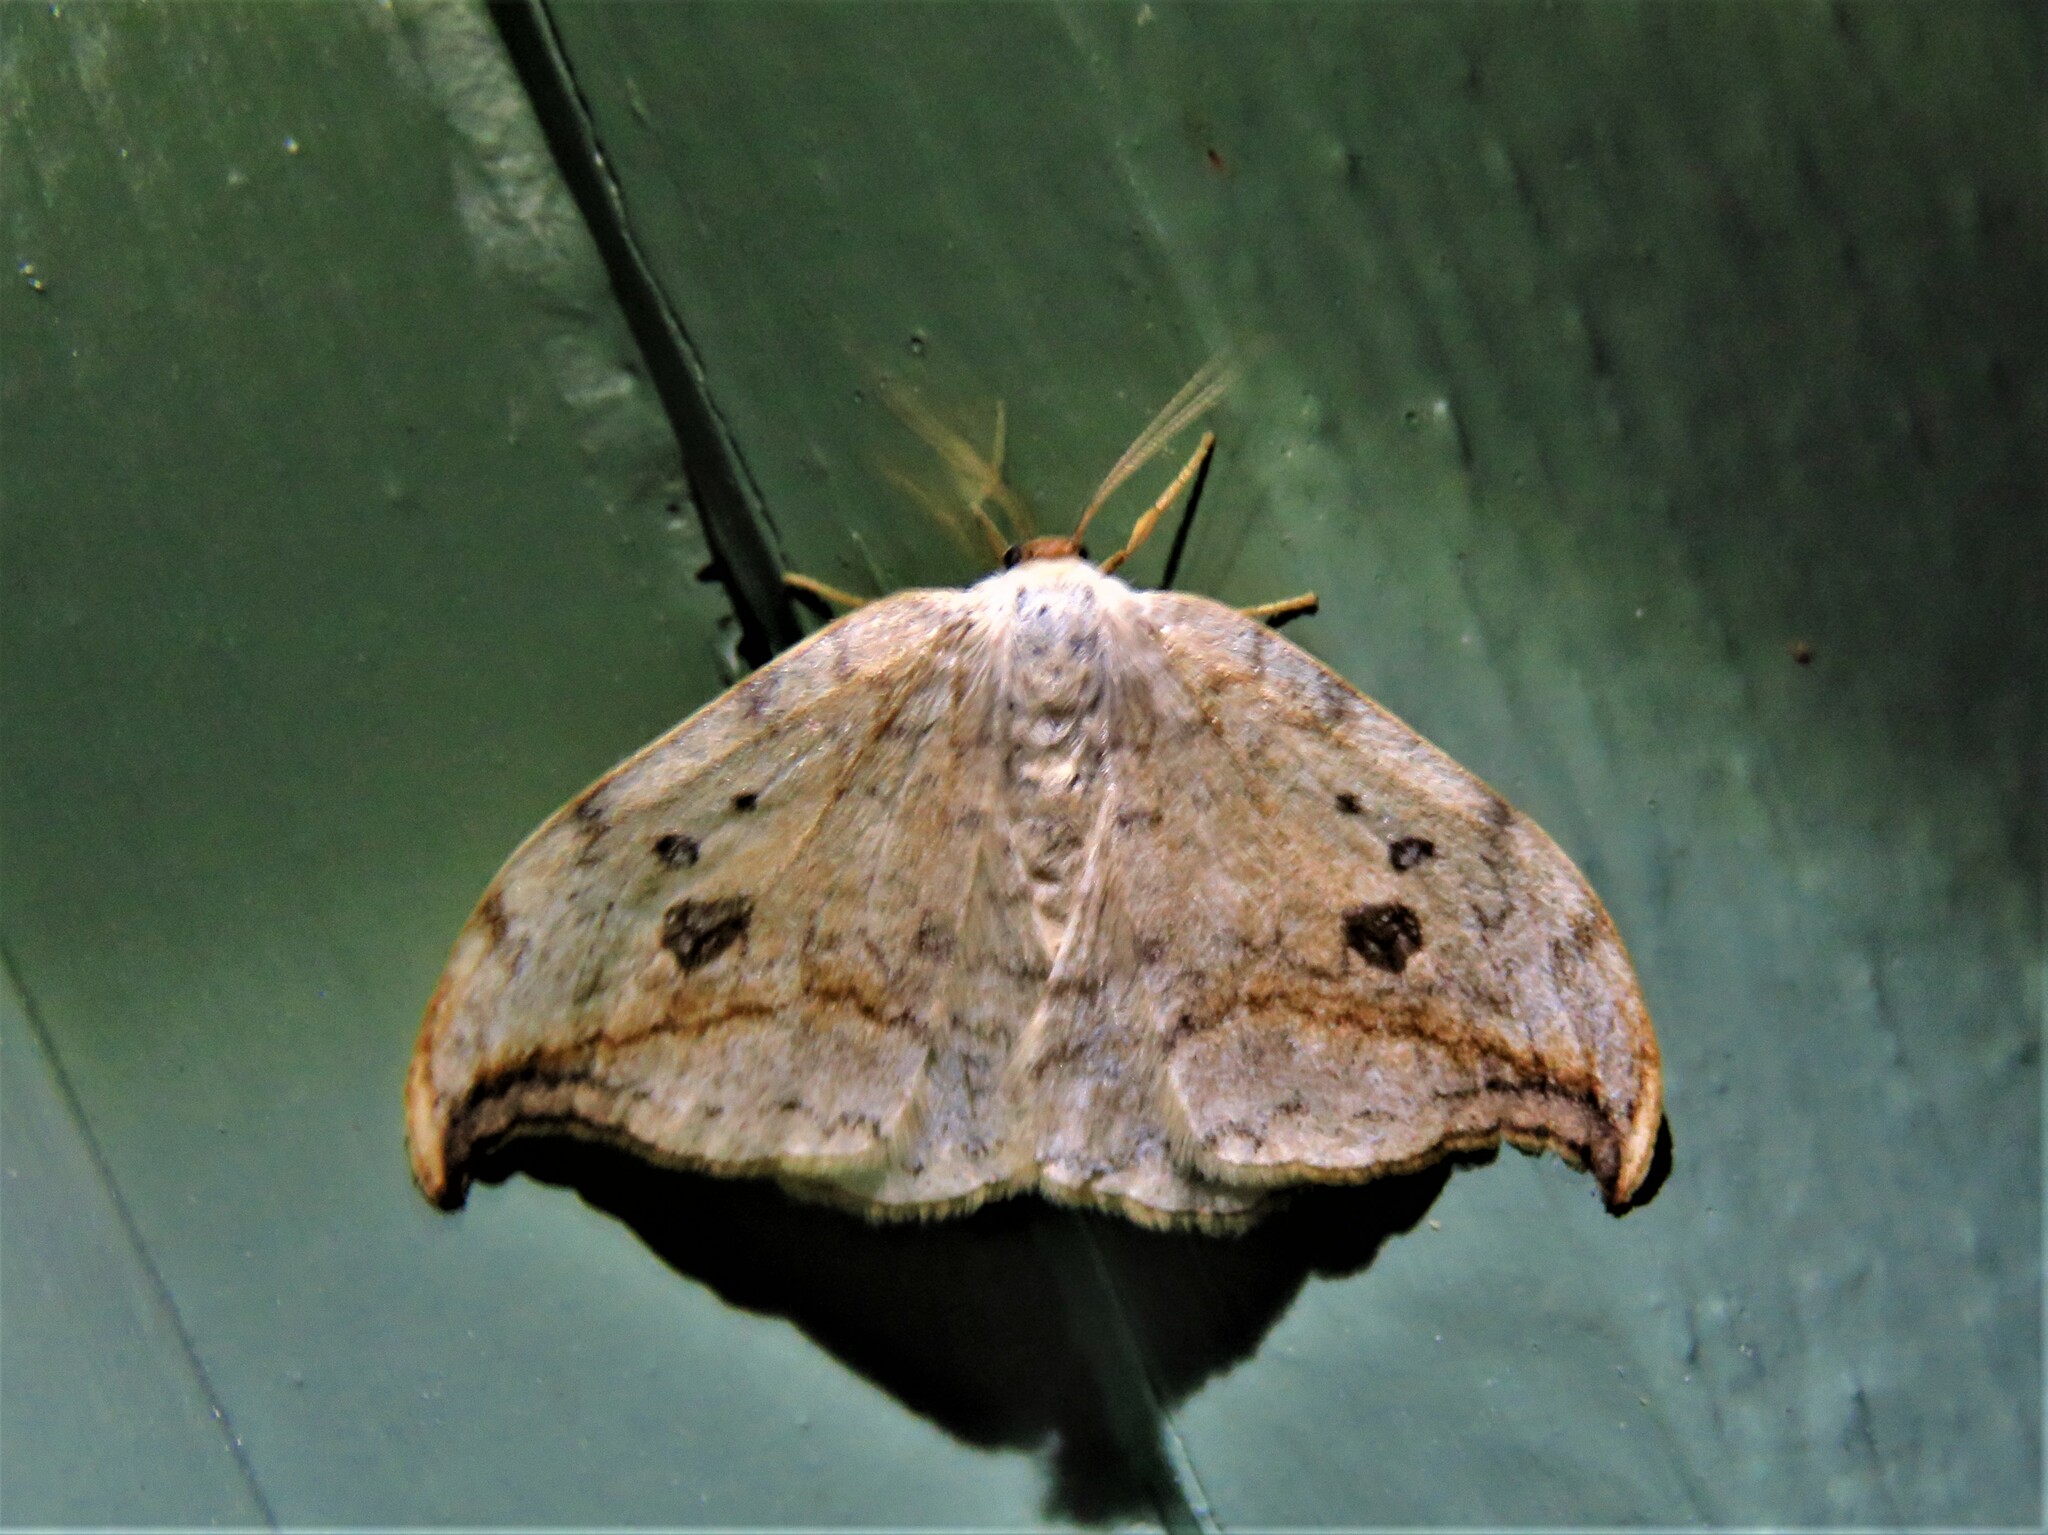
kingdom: Animalia
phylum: Arthropoda
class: Insecta
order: Lepidoptera
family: Drepanidae
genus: Drepana
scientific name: Drepana falcataria
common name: Pebble hook-tip
